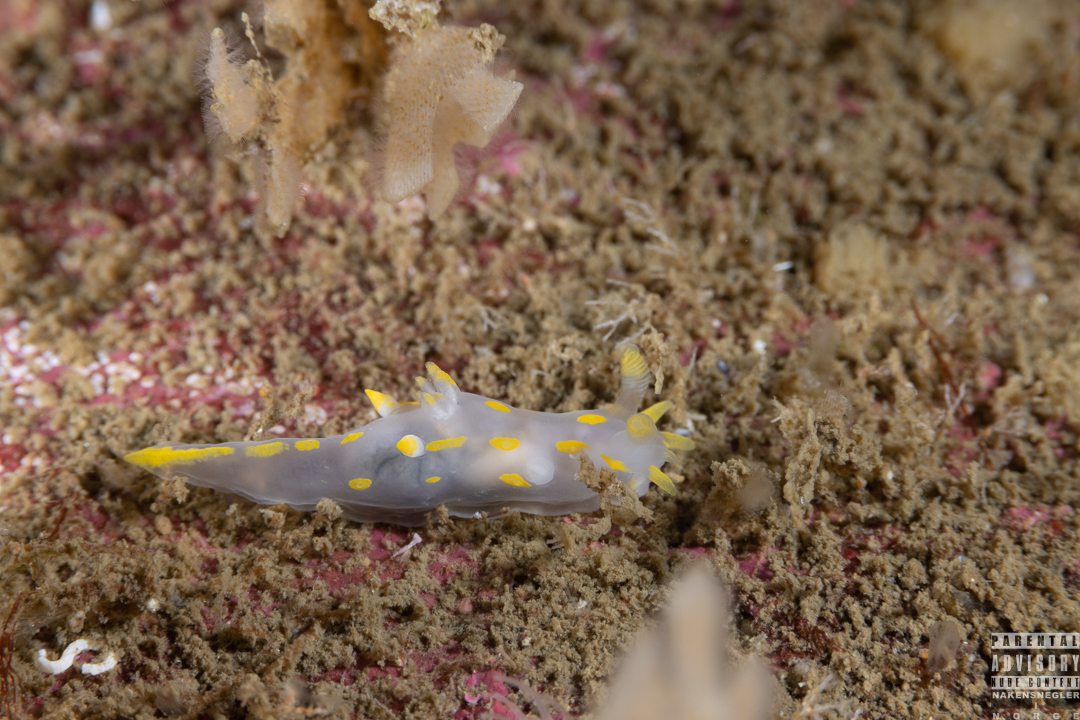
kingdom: Animalia
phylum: Mollusca
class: Gastropoda
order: Nudibranchia
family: Polyceridae
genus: Polycera
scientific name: Polycera quadrilineata
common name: Four-striped polycera
